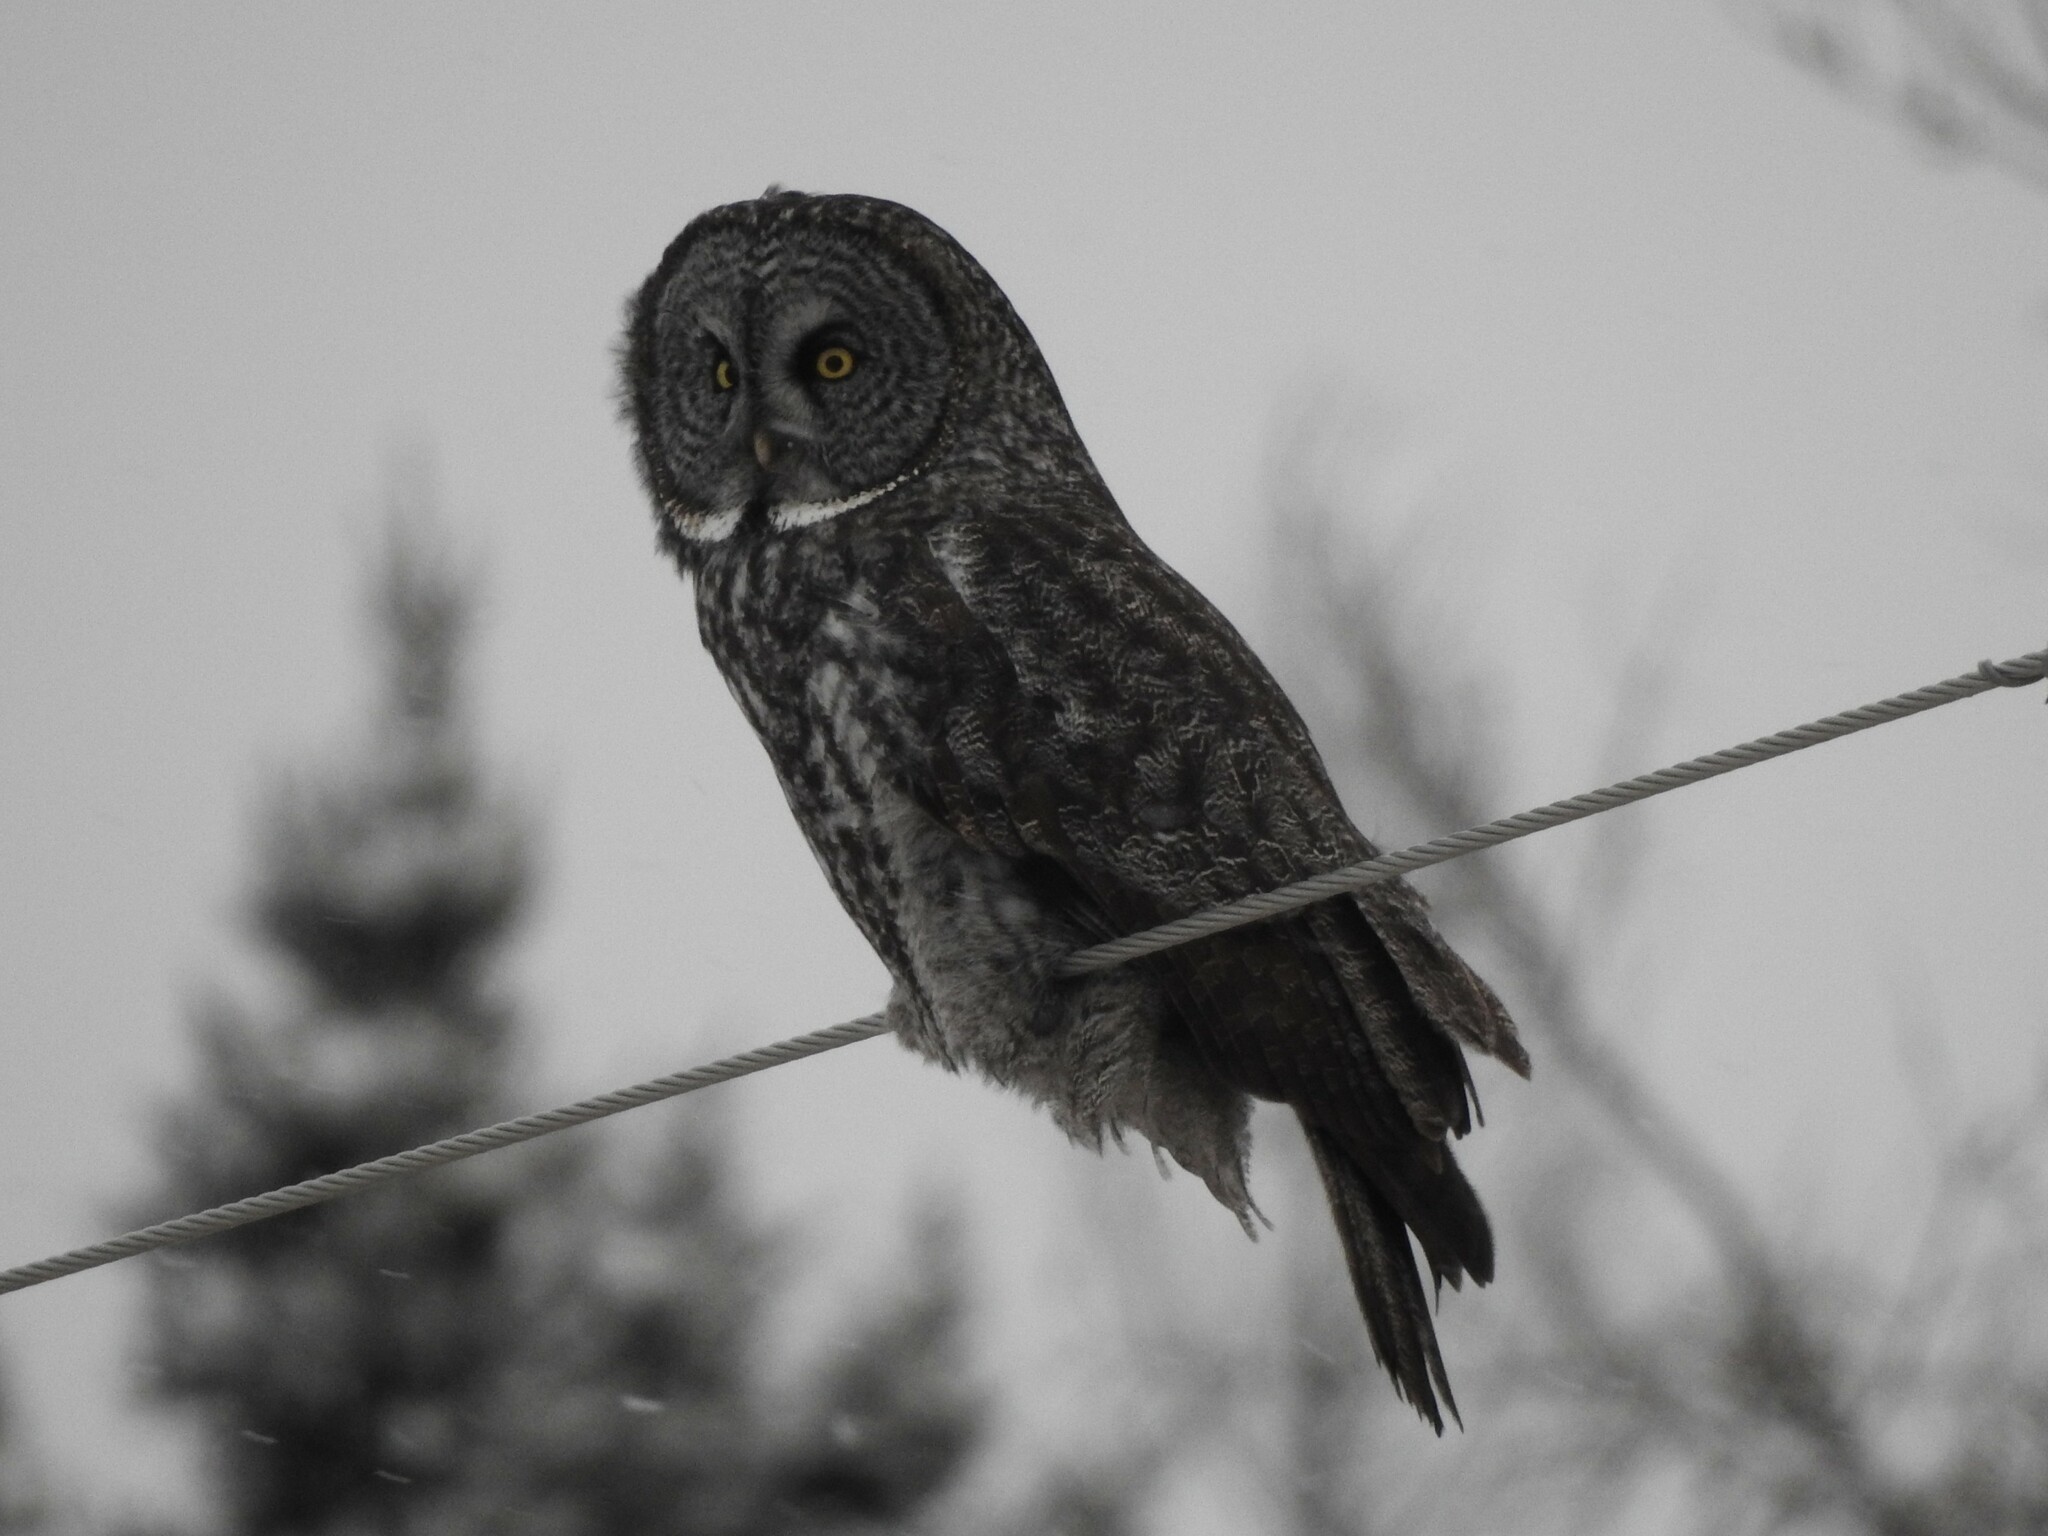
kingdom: Animalia
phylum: Chordata
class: Aves
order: Strigiformes
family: Strigidae
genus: Strix
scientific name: Strix nebulosa
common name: Great grey owl
